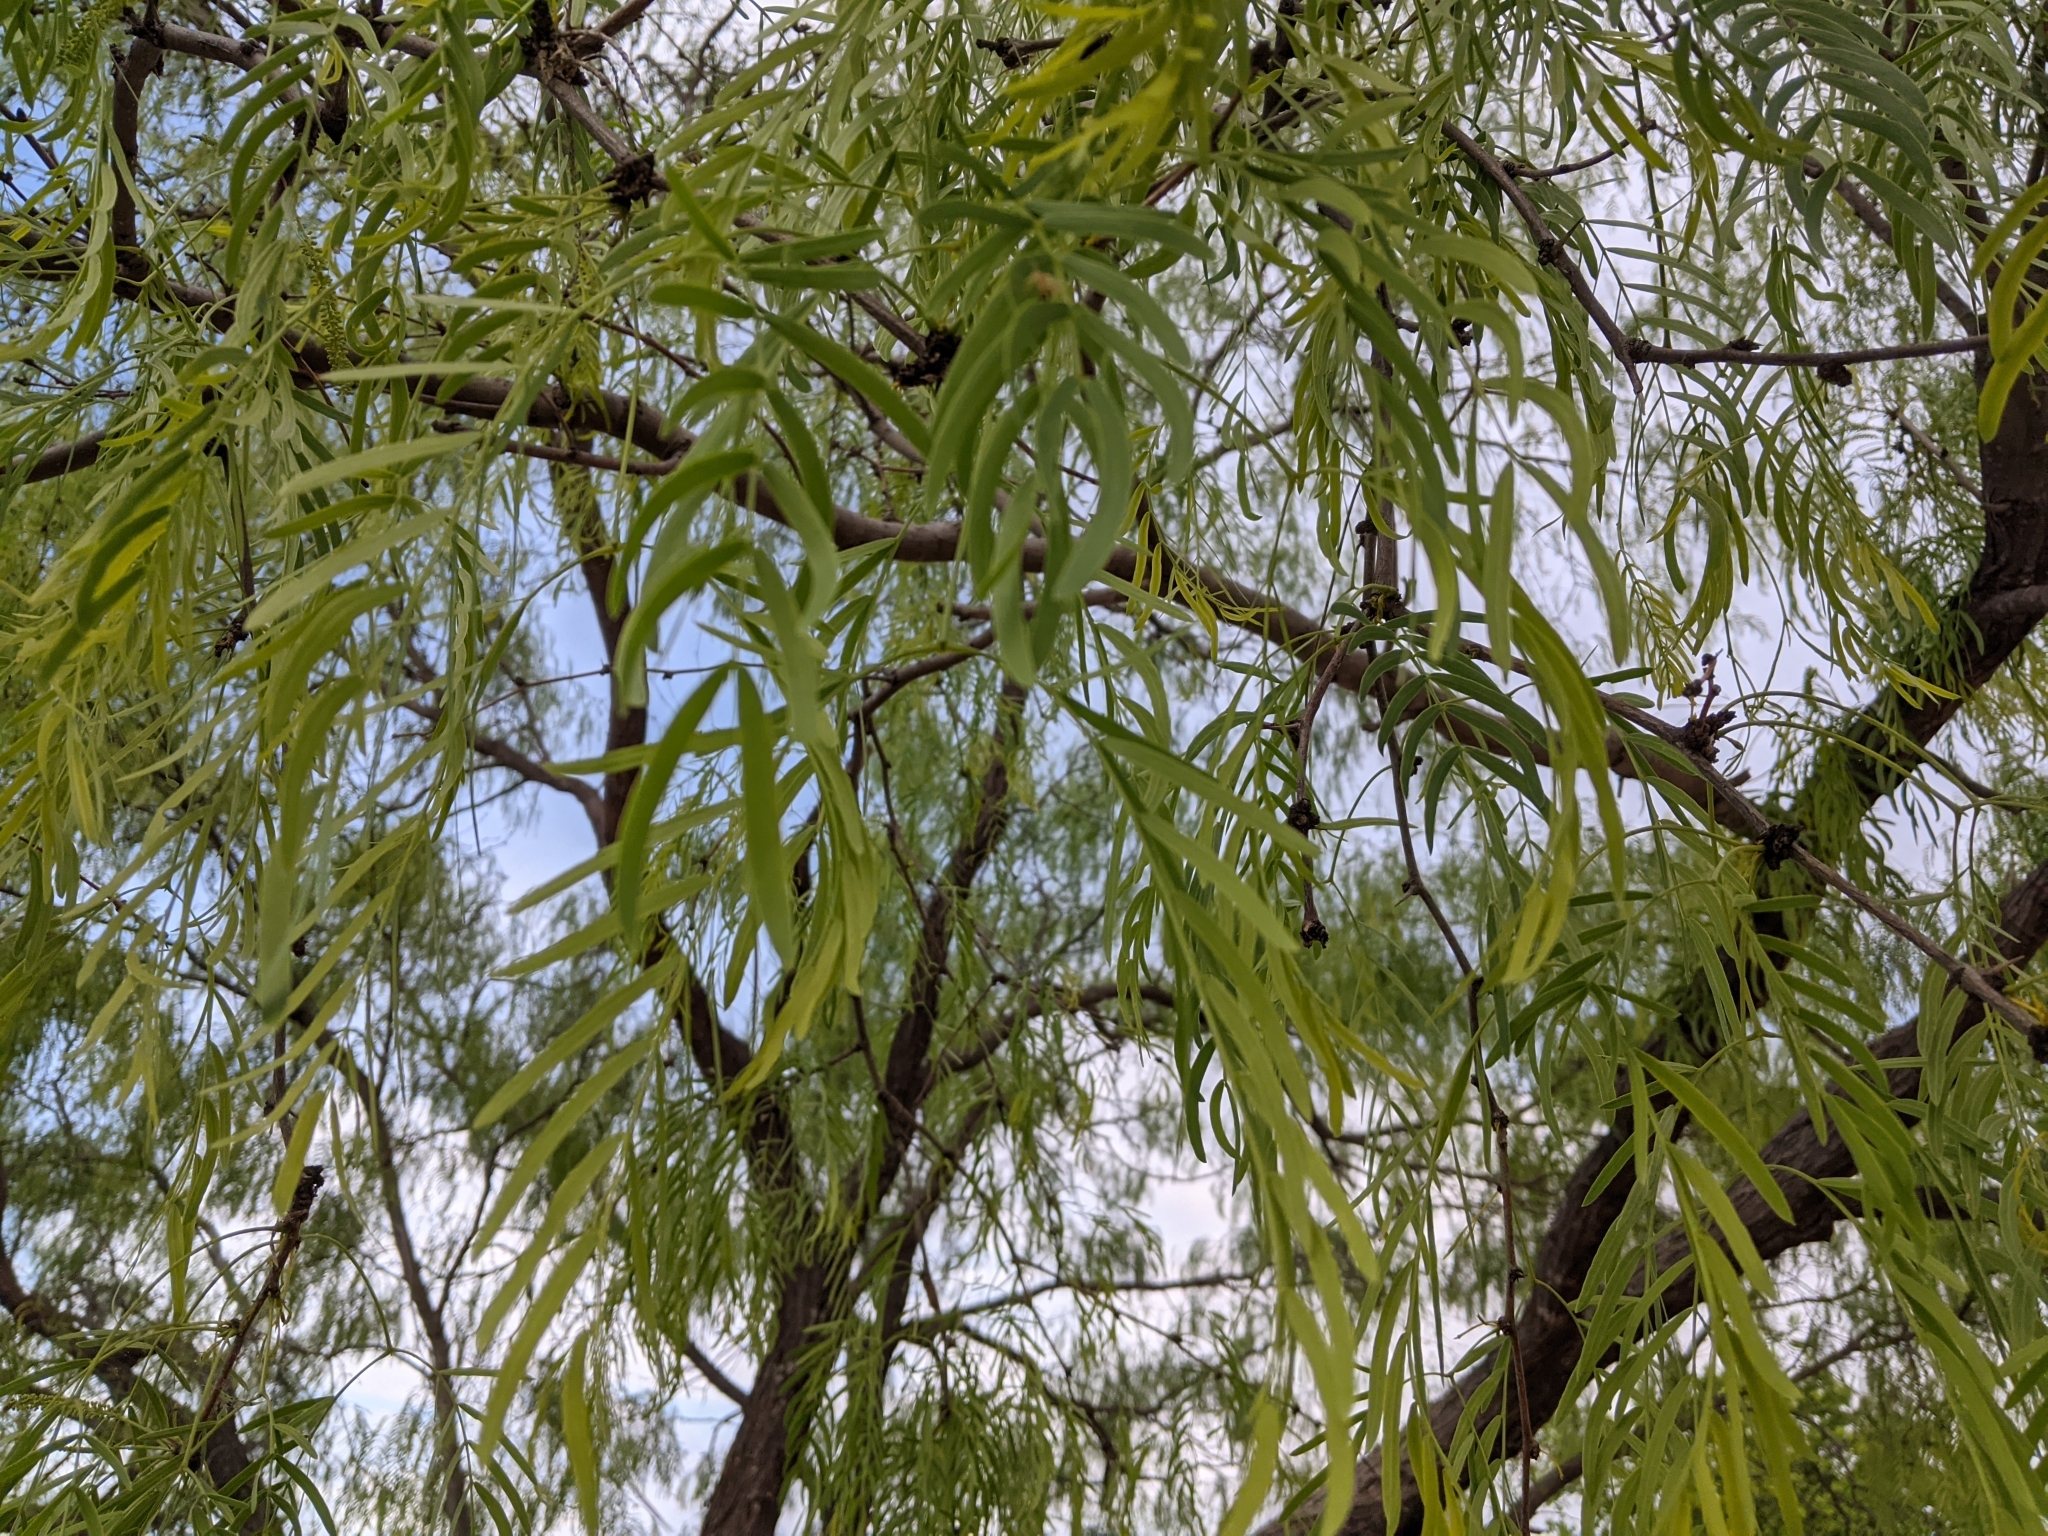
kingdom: Plantae
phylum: Tracheophyta
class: Magnoliopsida
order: Malpighiales
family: Salicaceae
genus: Salix
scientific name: Salix nigra
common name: Black willow
